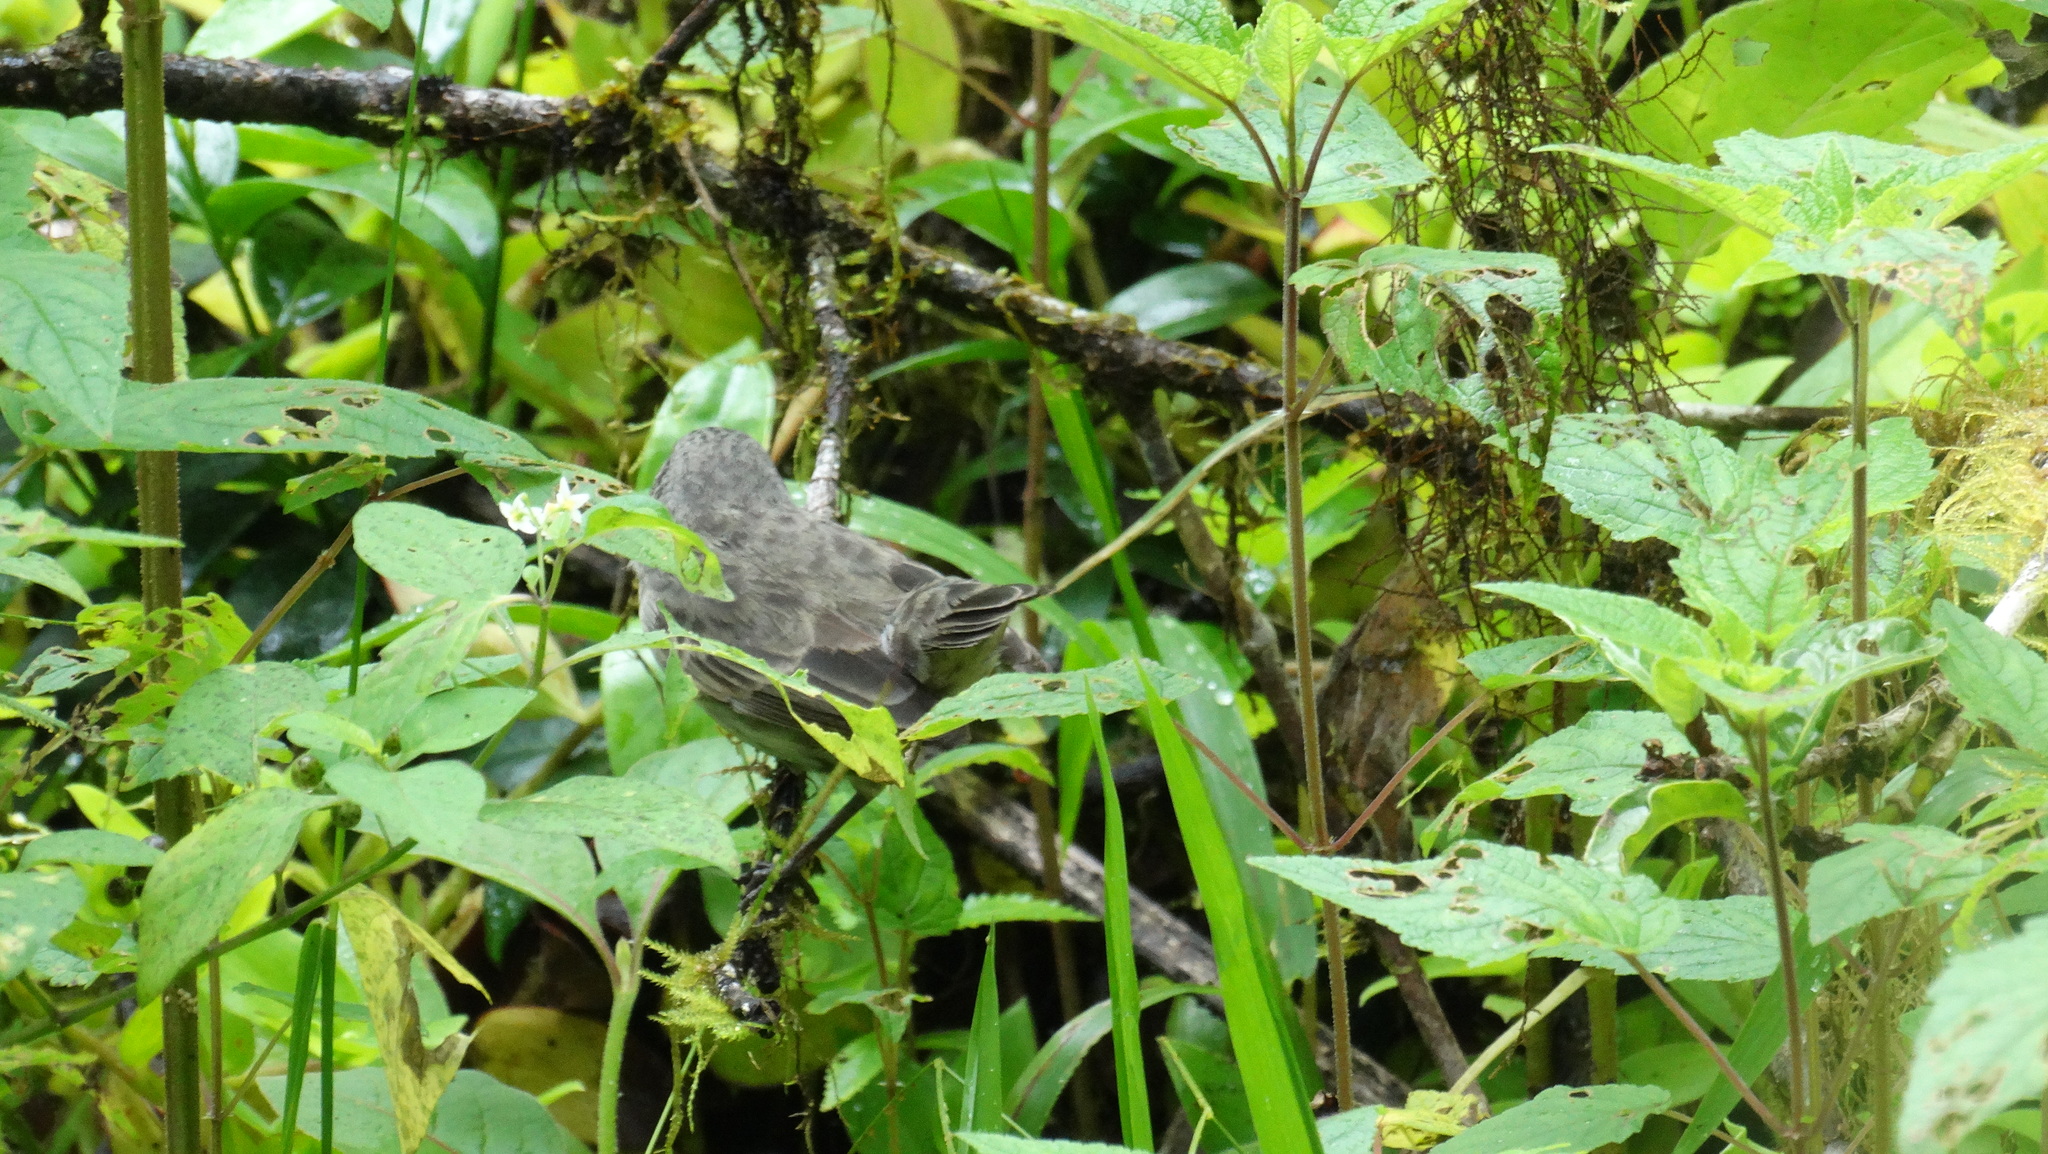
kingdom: Animalia
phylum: Chordata
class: Aves
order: Passeriformes
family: Thraupidae
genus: Geospiza
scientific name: Geospiza fuliginosa
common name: Small ground finch
